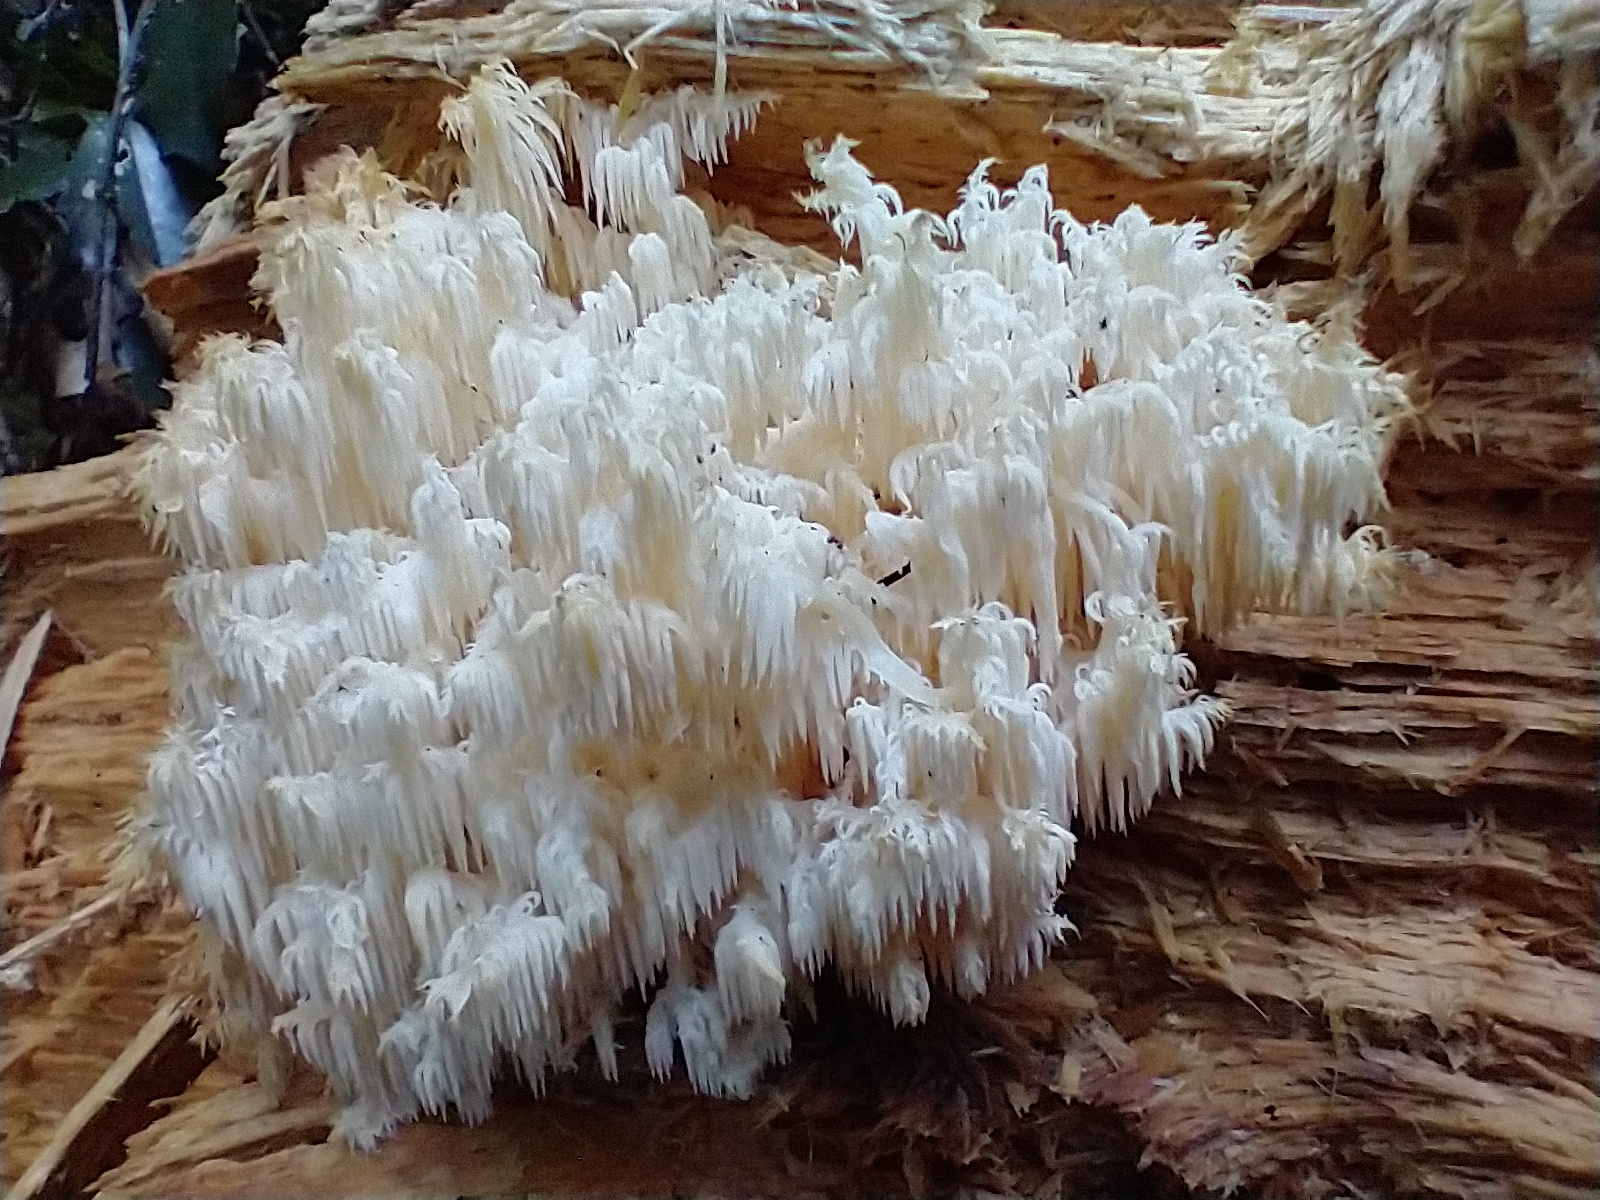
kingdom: Fungi
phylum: Basidiomycota
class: Agaricomycetes
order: Russulales
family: Hericiaceae
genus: Hericium
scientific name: Hericium coralloides
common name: Coral tooth
